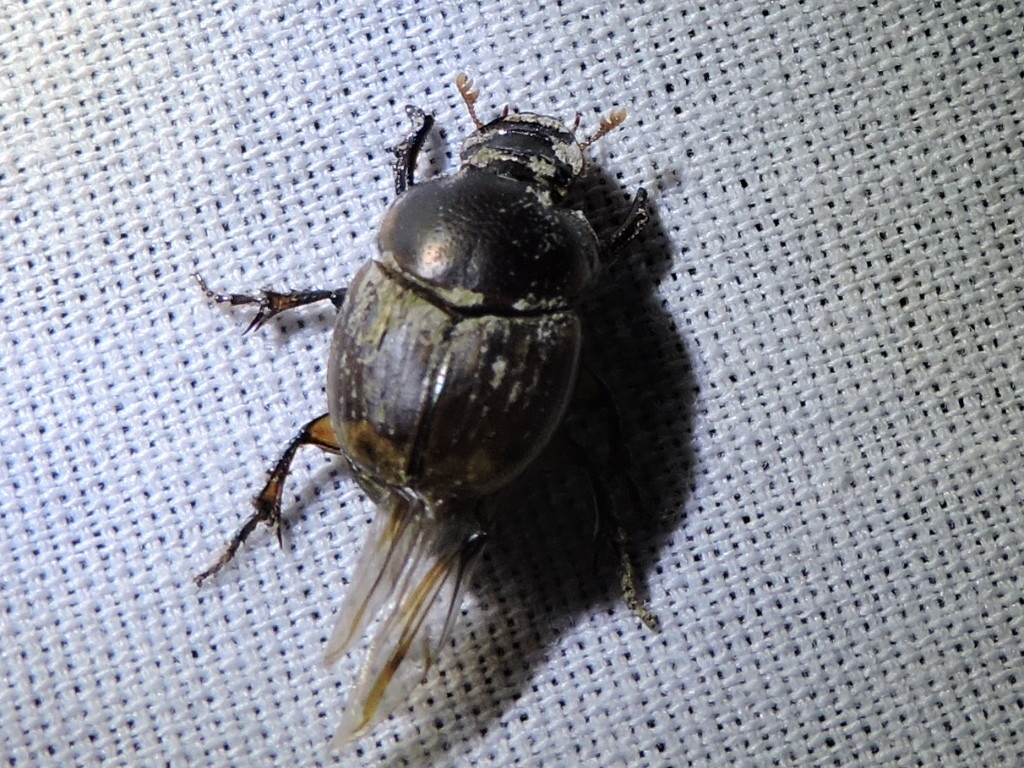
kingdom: Animalia
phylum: Arthropoda
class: Insecta
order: Coleoptera
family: Scarabaeidae
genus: Digitonthophagus
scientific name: Digitonthophagus gazella
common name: Brown dung beetle
